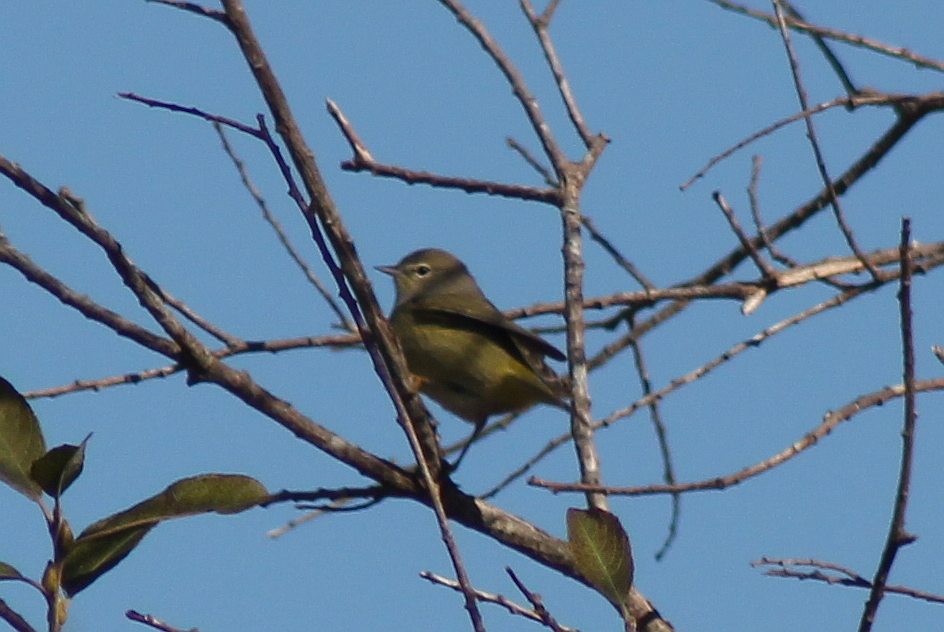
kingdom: Animalia
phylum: Chordata
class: Aves
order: Passeriformes
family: Parulidae
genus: Leiothlypis
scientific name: Leiothlypis celata
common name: Orange-crowned warbler
